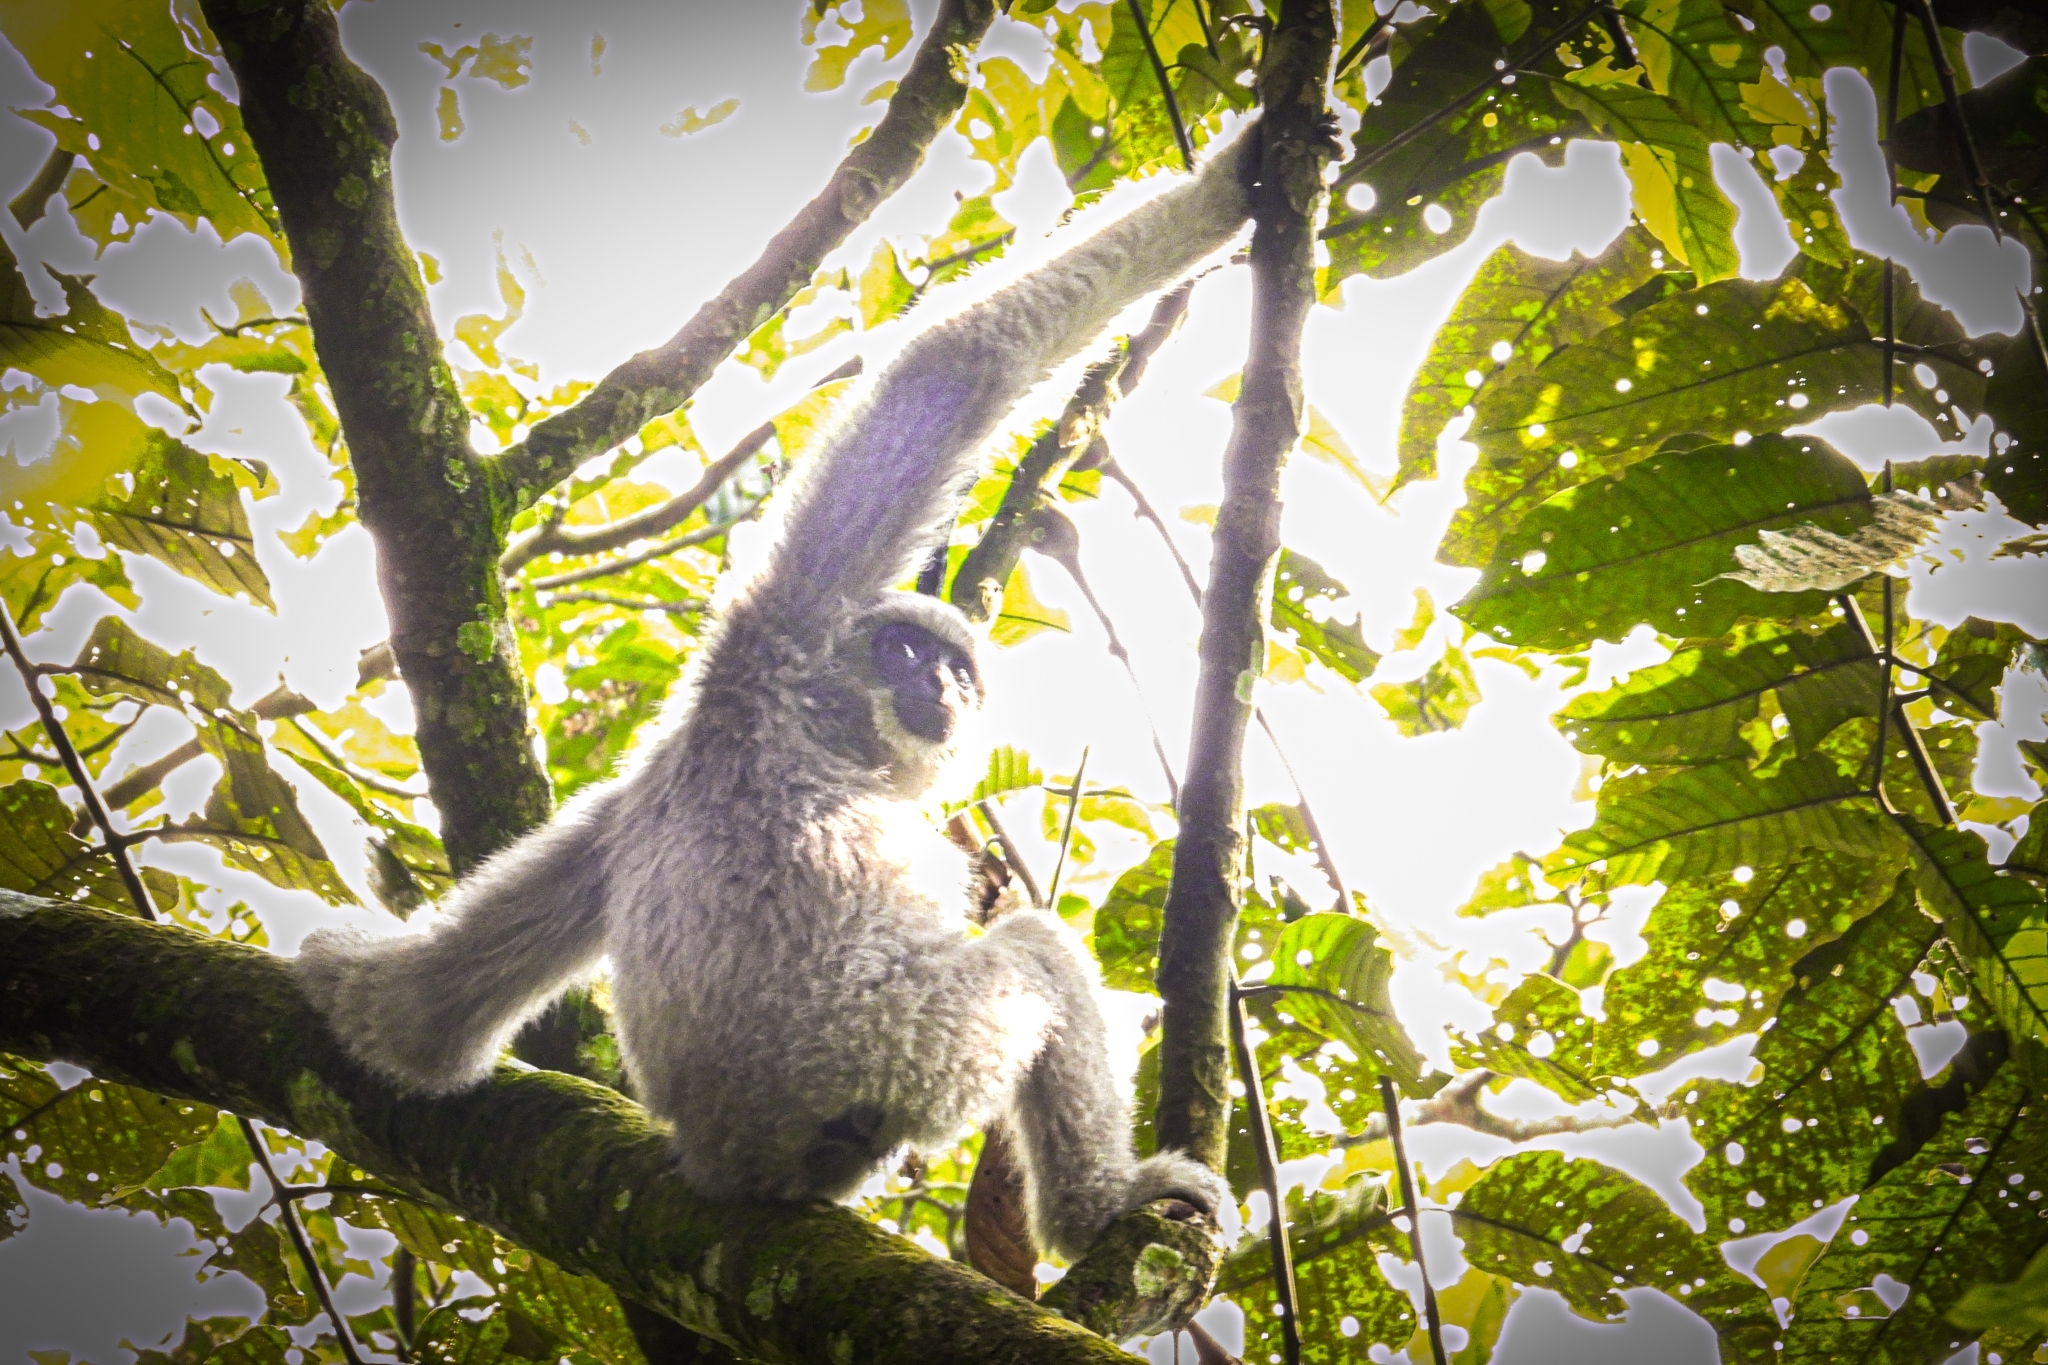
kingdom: Animalia
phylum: Chordata
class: Mammalia
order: Primates
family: Hylobatidae
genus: Hylobates
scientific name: Hylobates moloch
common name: Silvery javan gibbon
